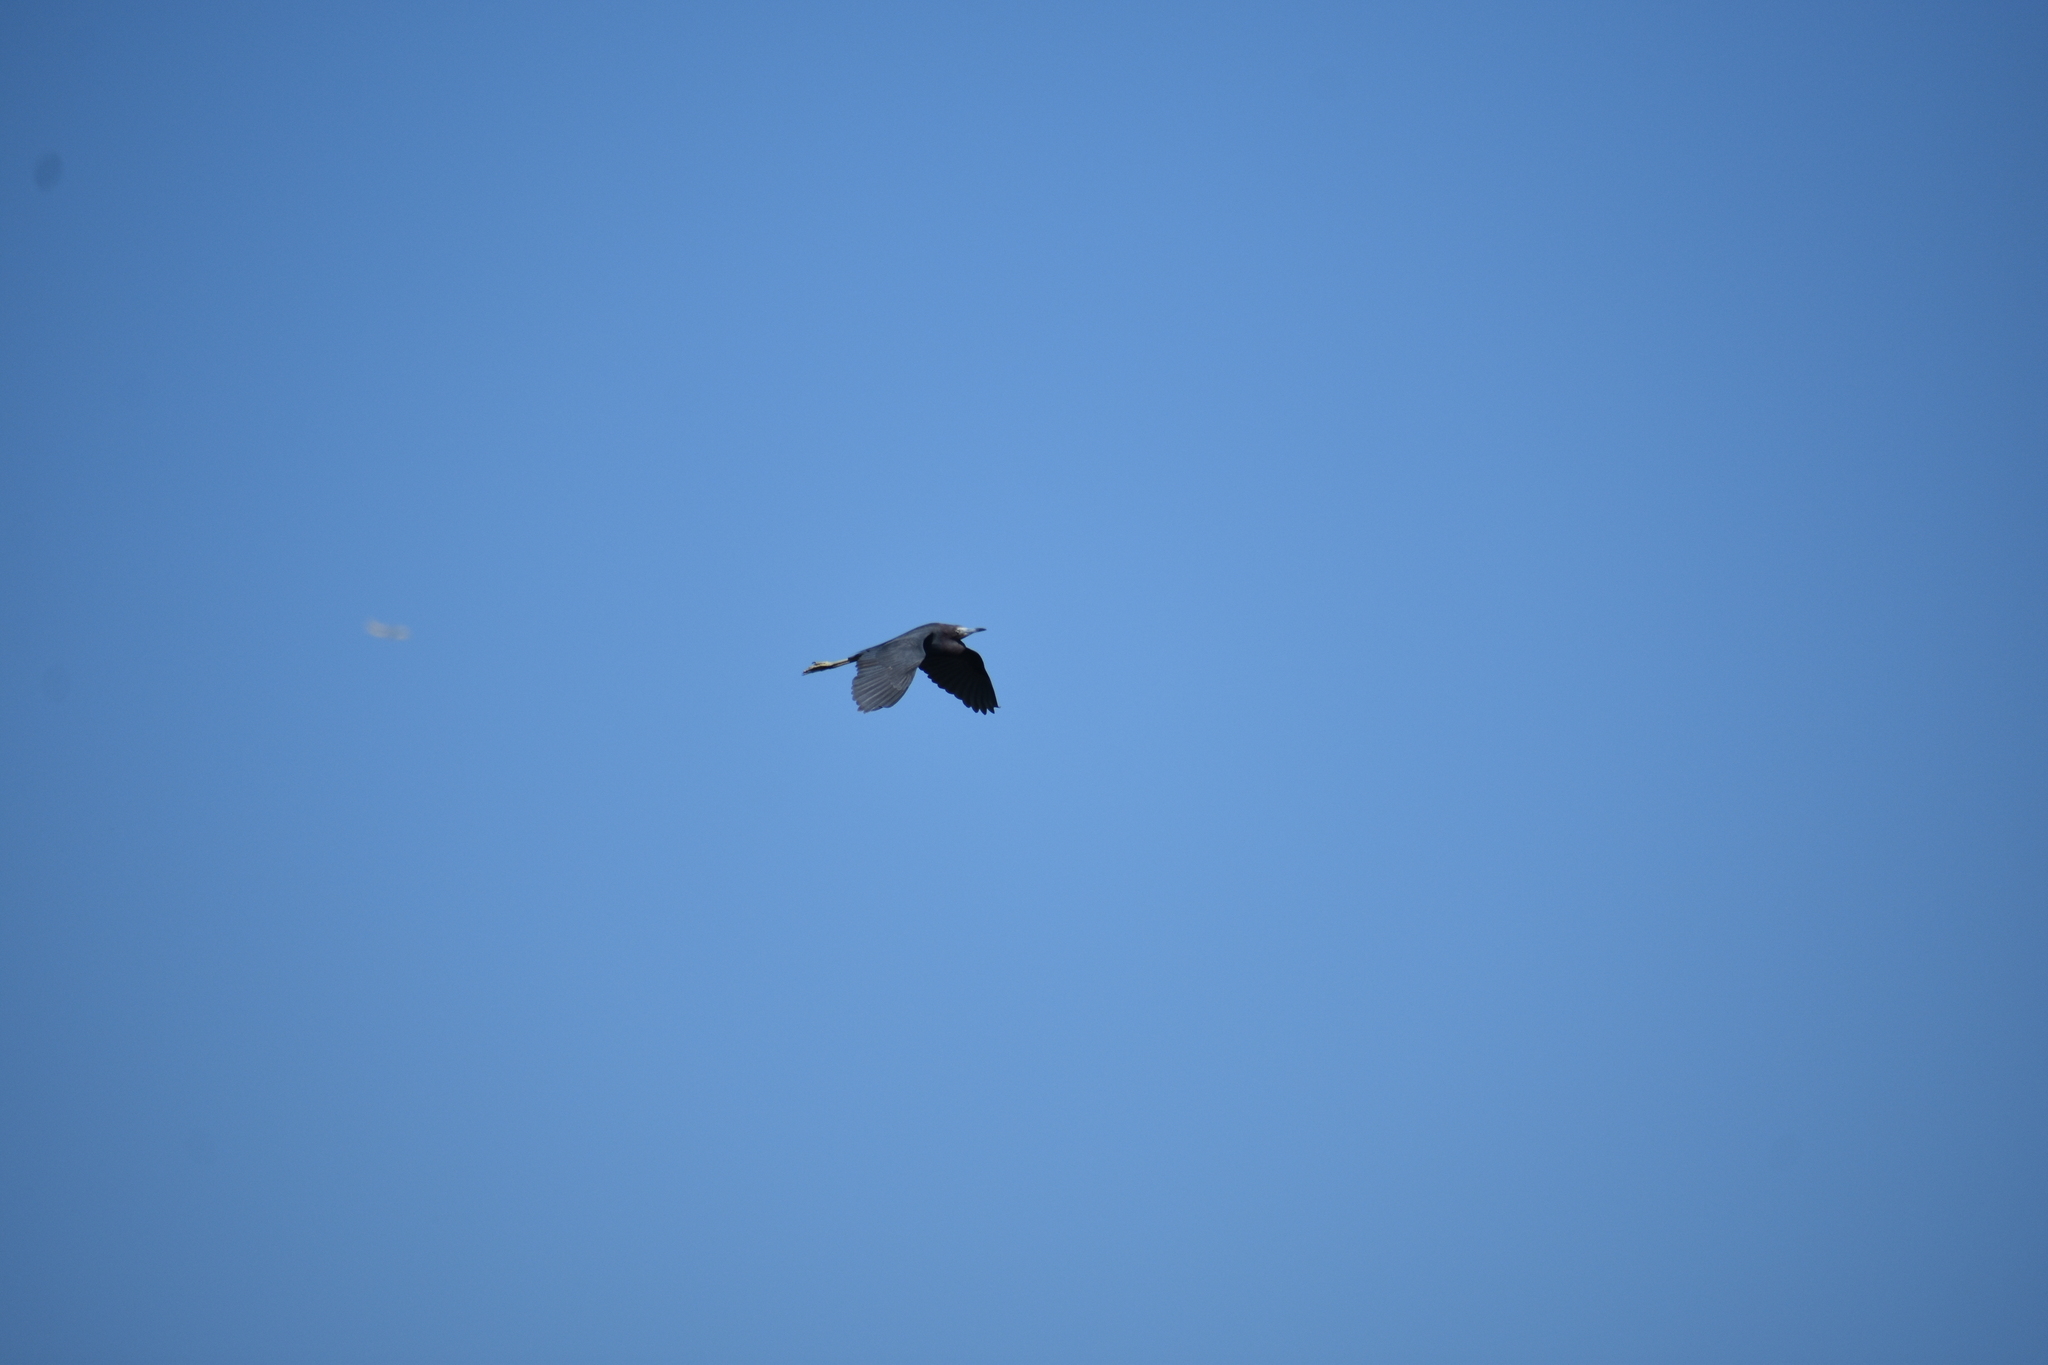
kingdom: Animalia
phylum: Chordata
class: Aves
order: Pelecaniformes
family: Ardeidae
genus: Egretta
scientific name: Egretta caerulea
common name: Little blue heron
